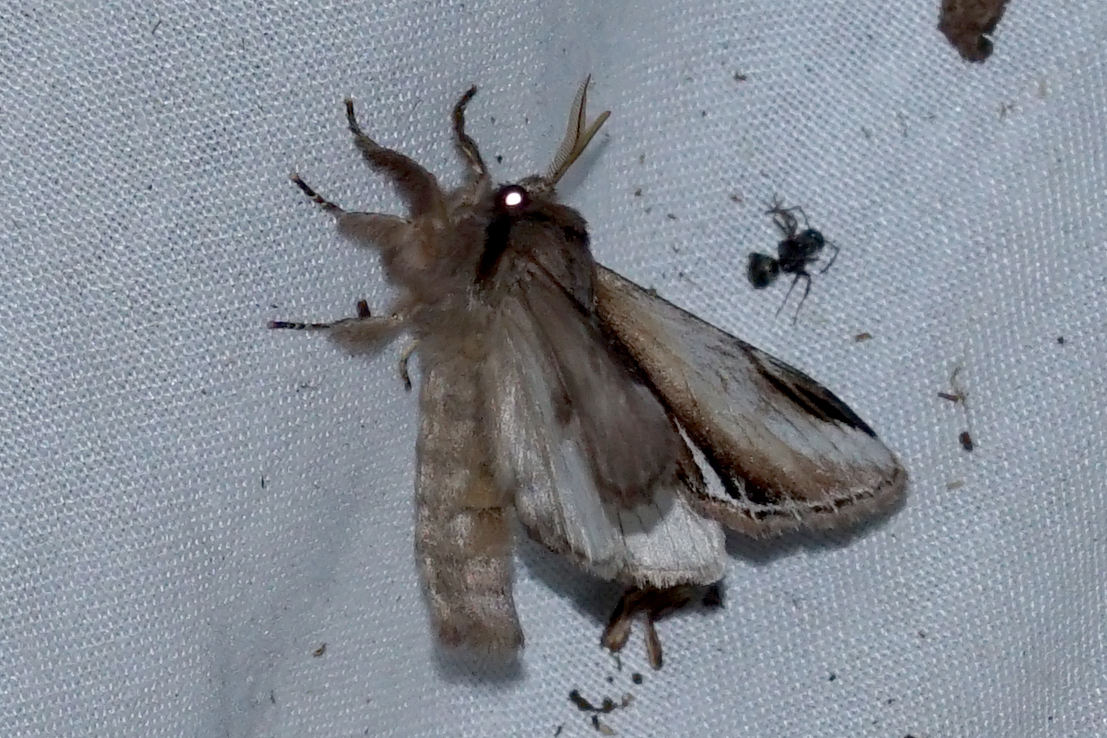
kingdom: Animalia
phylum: Arthropoda
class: Insecta
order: Lepidoptera
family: Notodontidae
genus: Pheosia
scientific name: Pheosia gnoma
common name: Lesser swallow prominent
